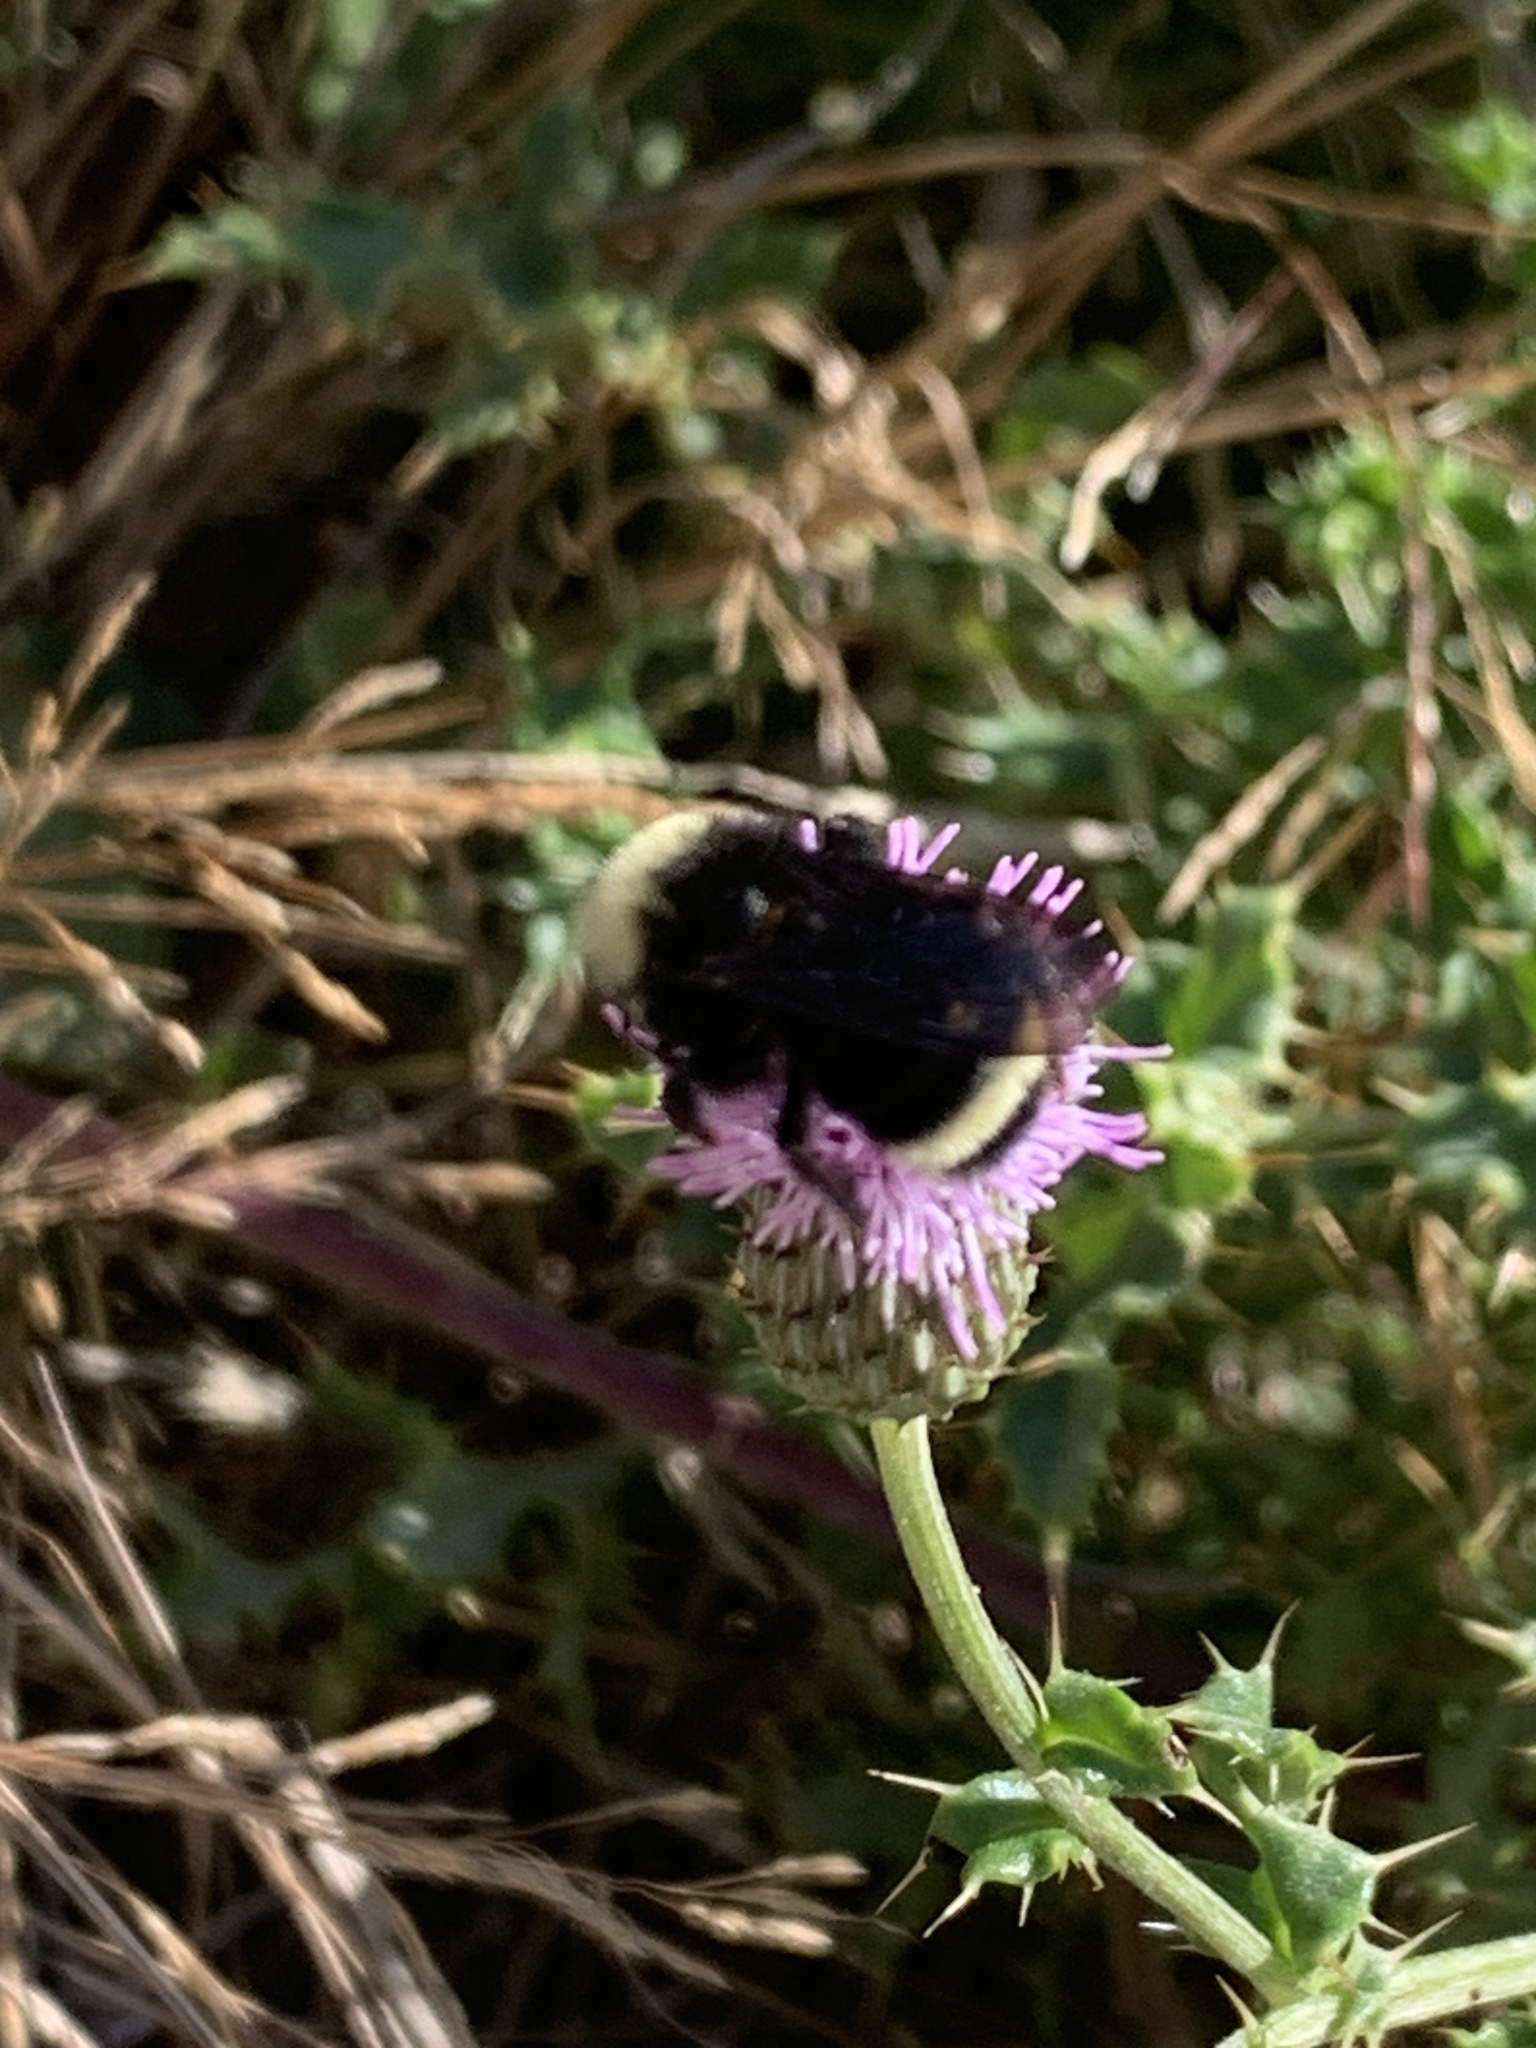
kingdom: Animalia
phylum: Arthropoda
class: Insecta
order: Hymenoptera
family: Apidae
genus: Bombus
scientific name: Bombus vosnesenskii
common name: Vosnesensky bumble bee
